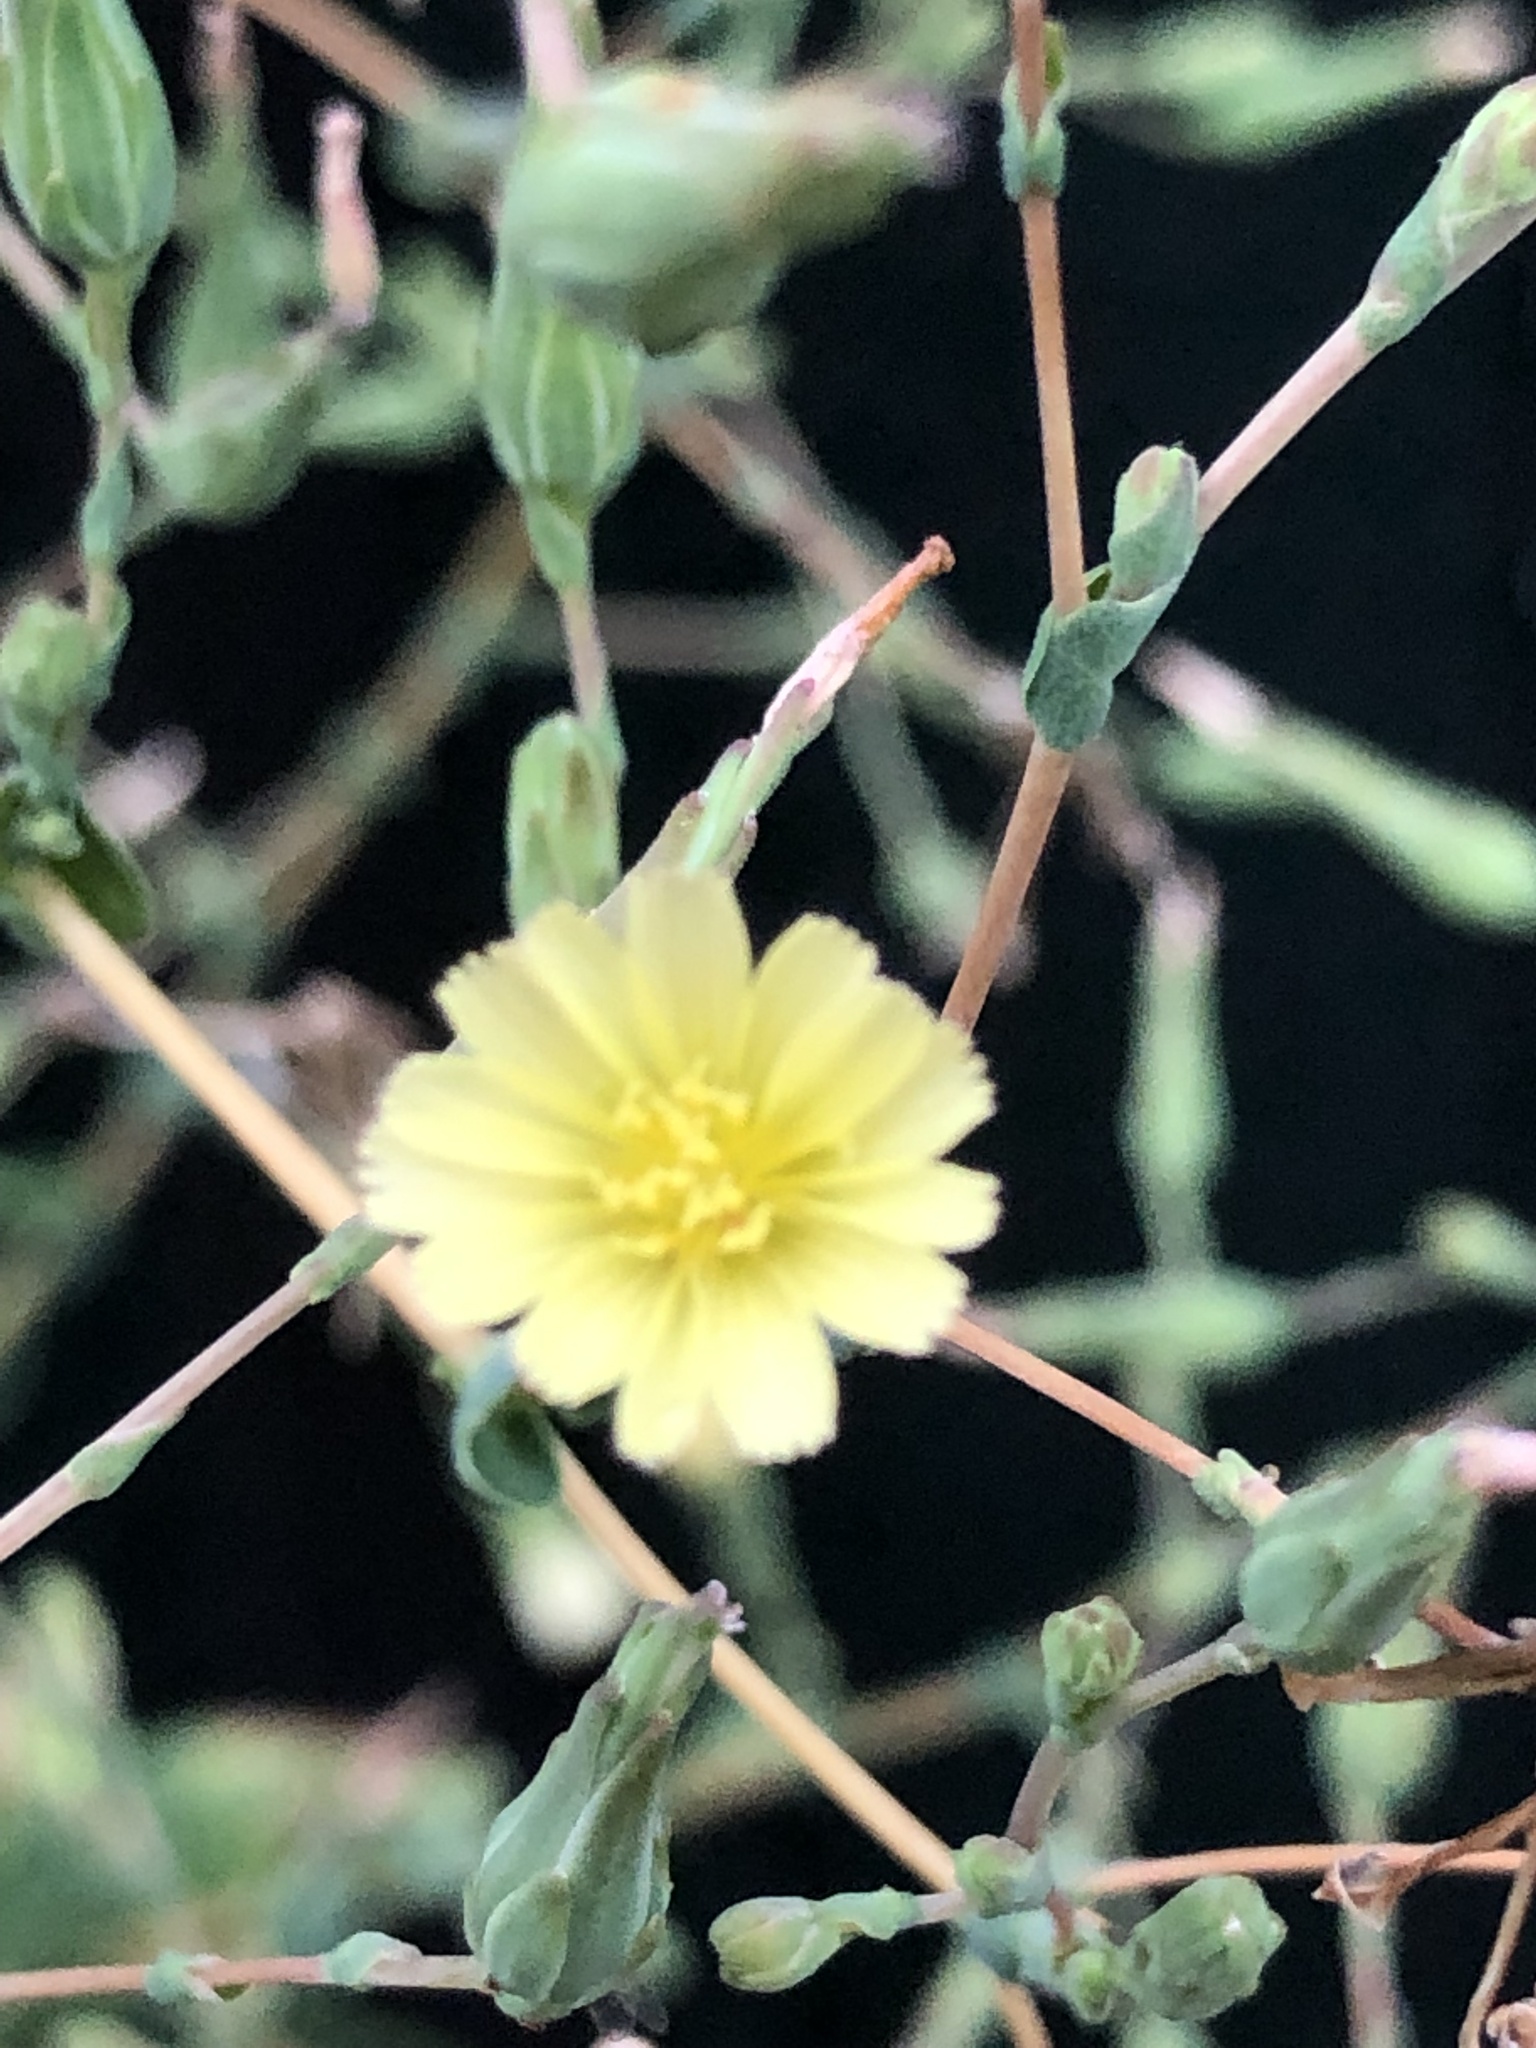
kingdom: Plantae
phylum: Tracheophyta
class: Magnoliopsida
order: Asterales
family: Asteraceae
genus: Lactuca
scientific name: Lactuca serriola
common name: Prickly lettuce
